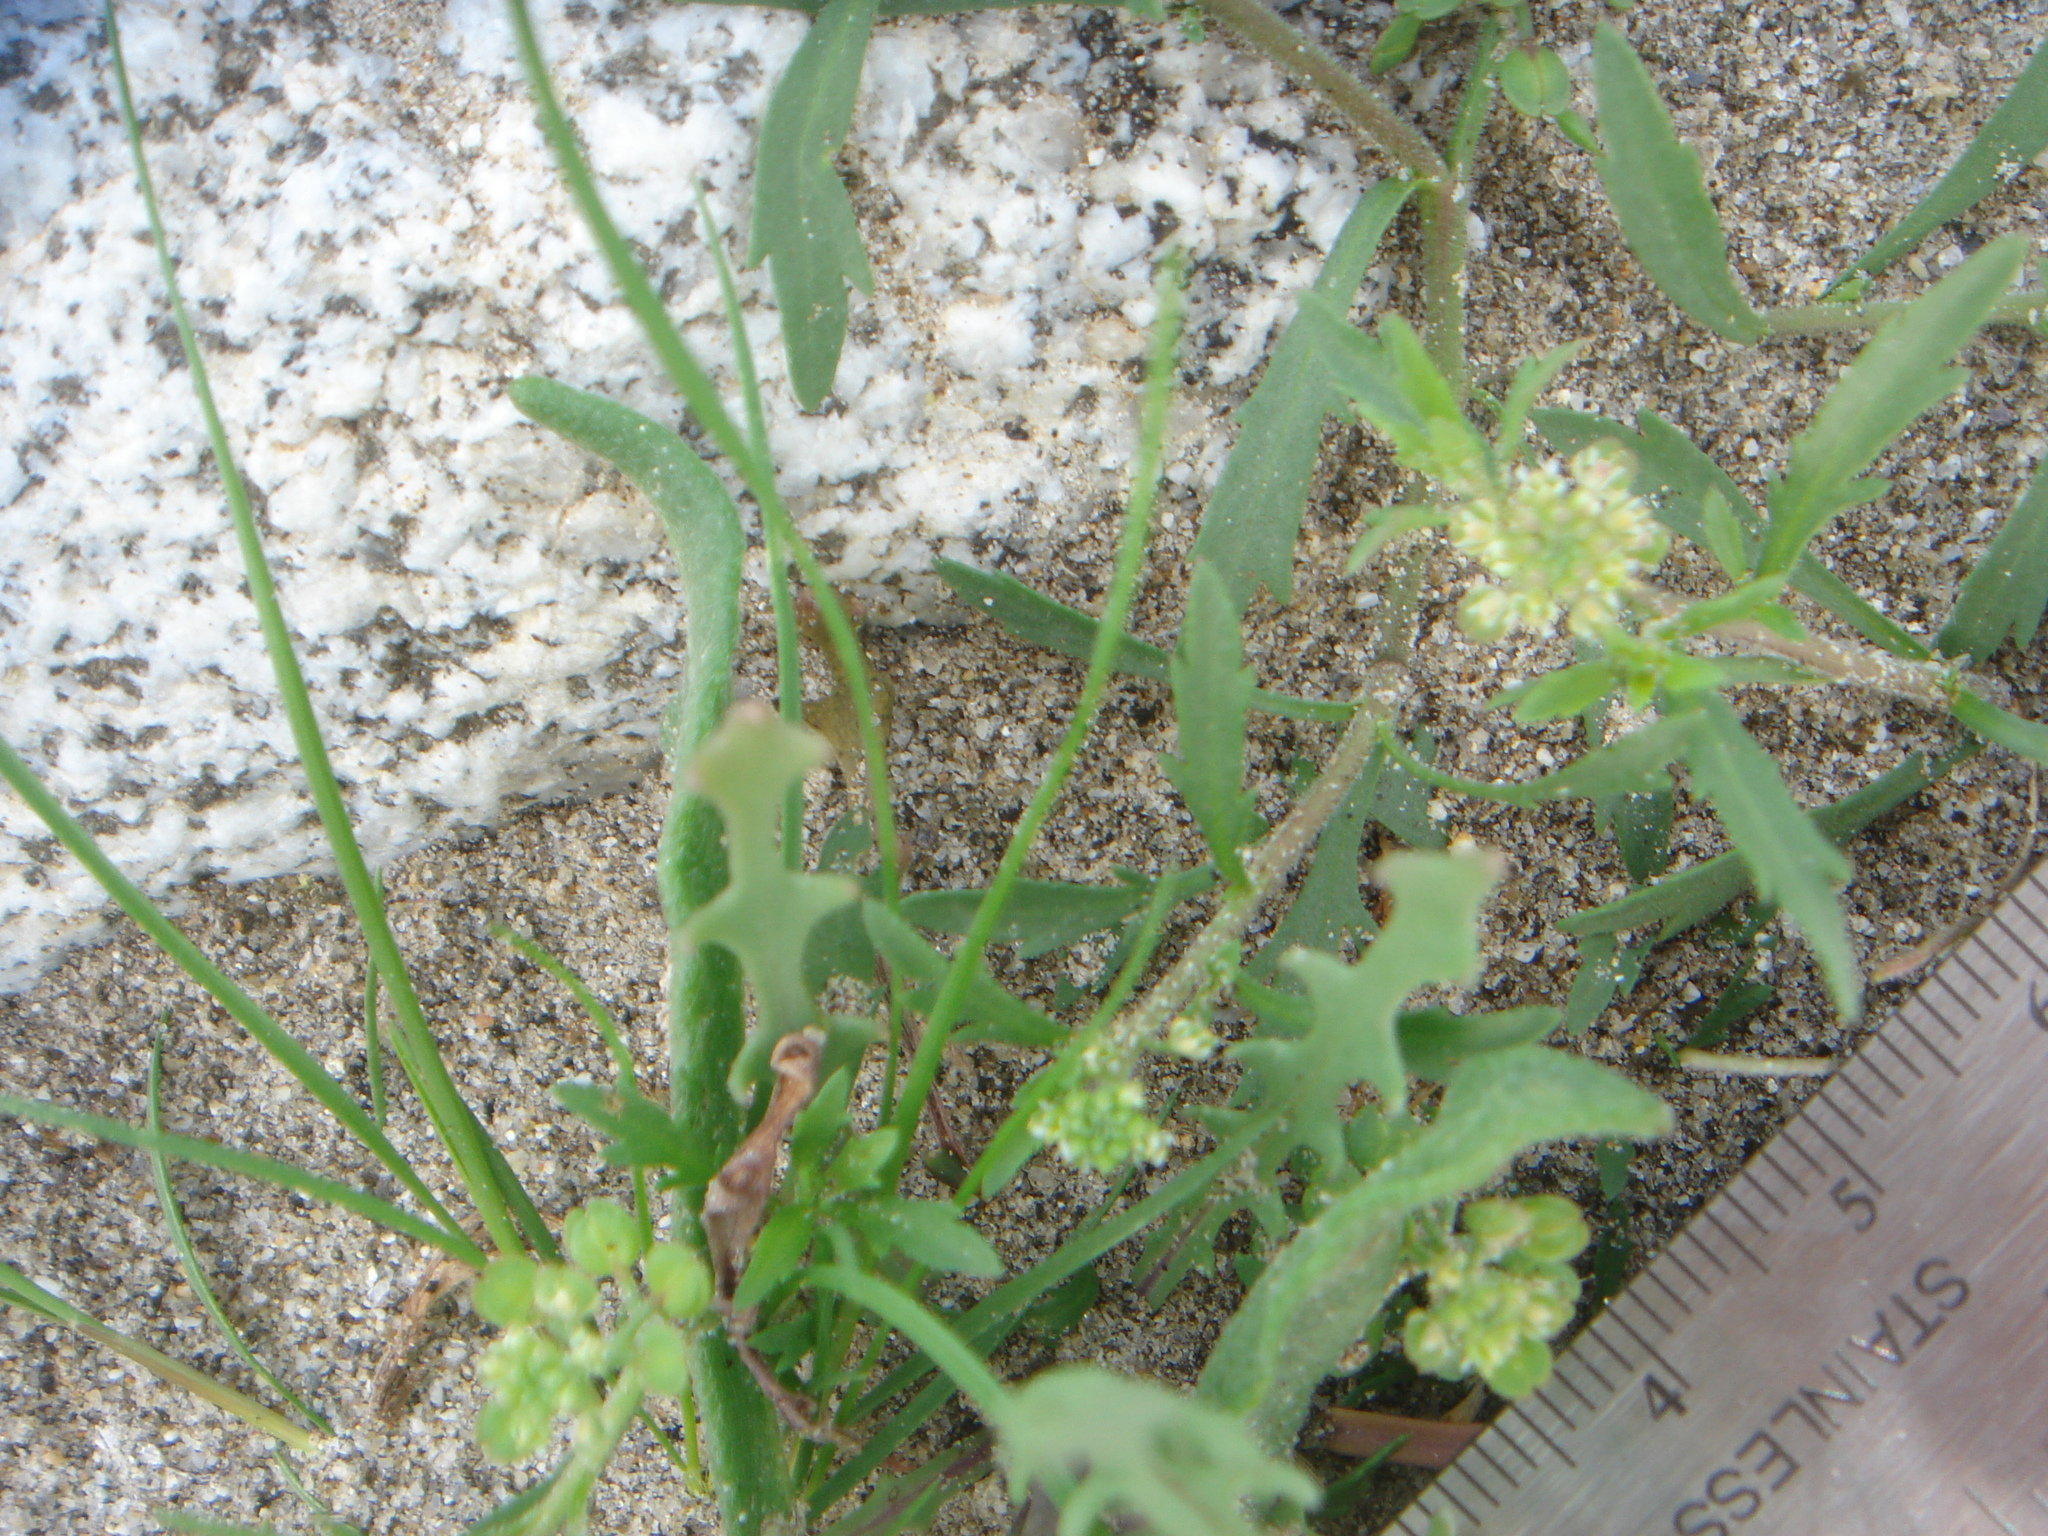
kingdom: Plantae
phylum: Tracheophyta
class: Magnoliopsida
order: Brassicales
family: Brassicaceae
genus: Streptanthus
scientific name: Streptanthus longirostris
